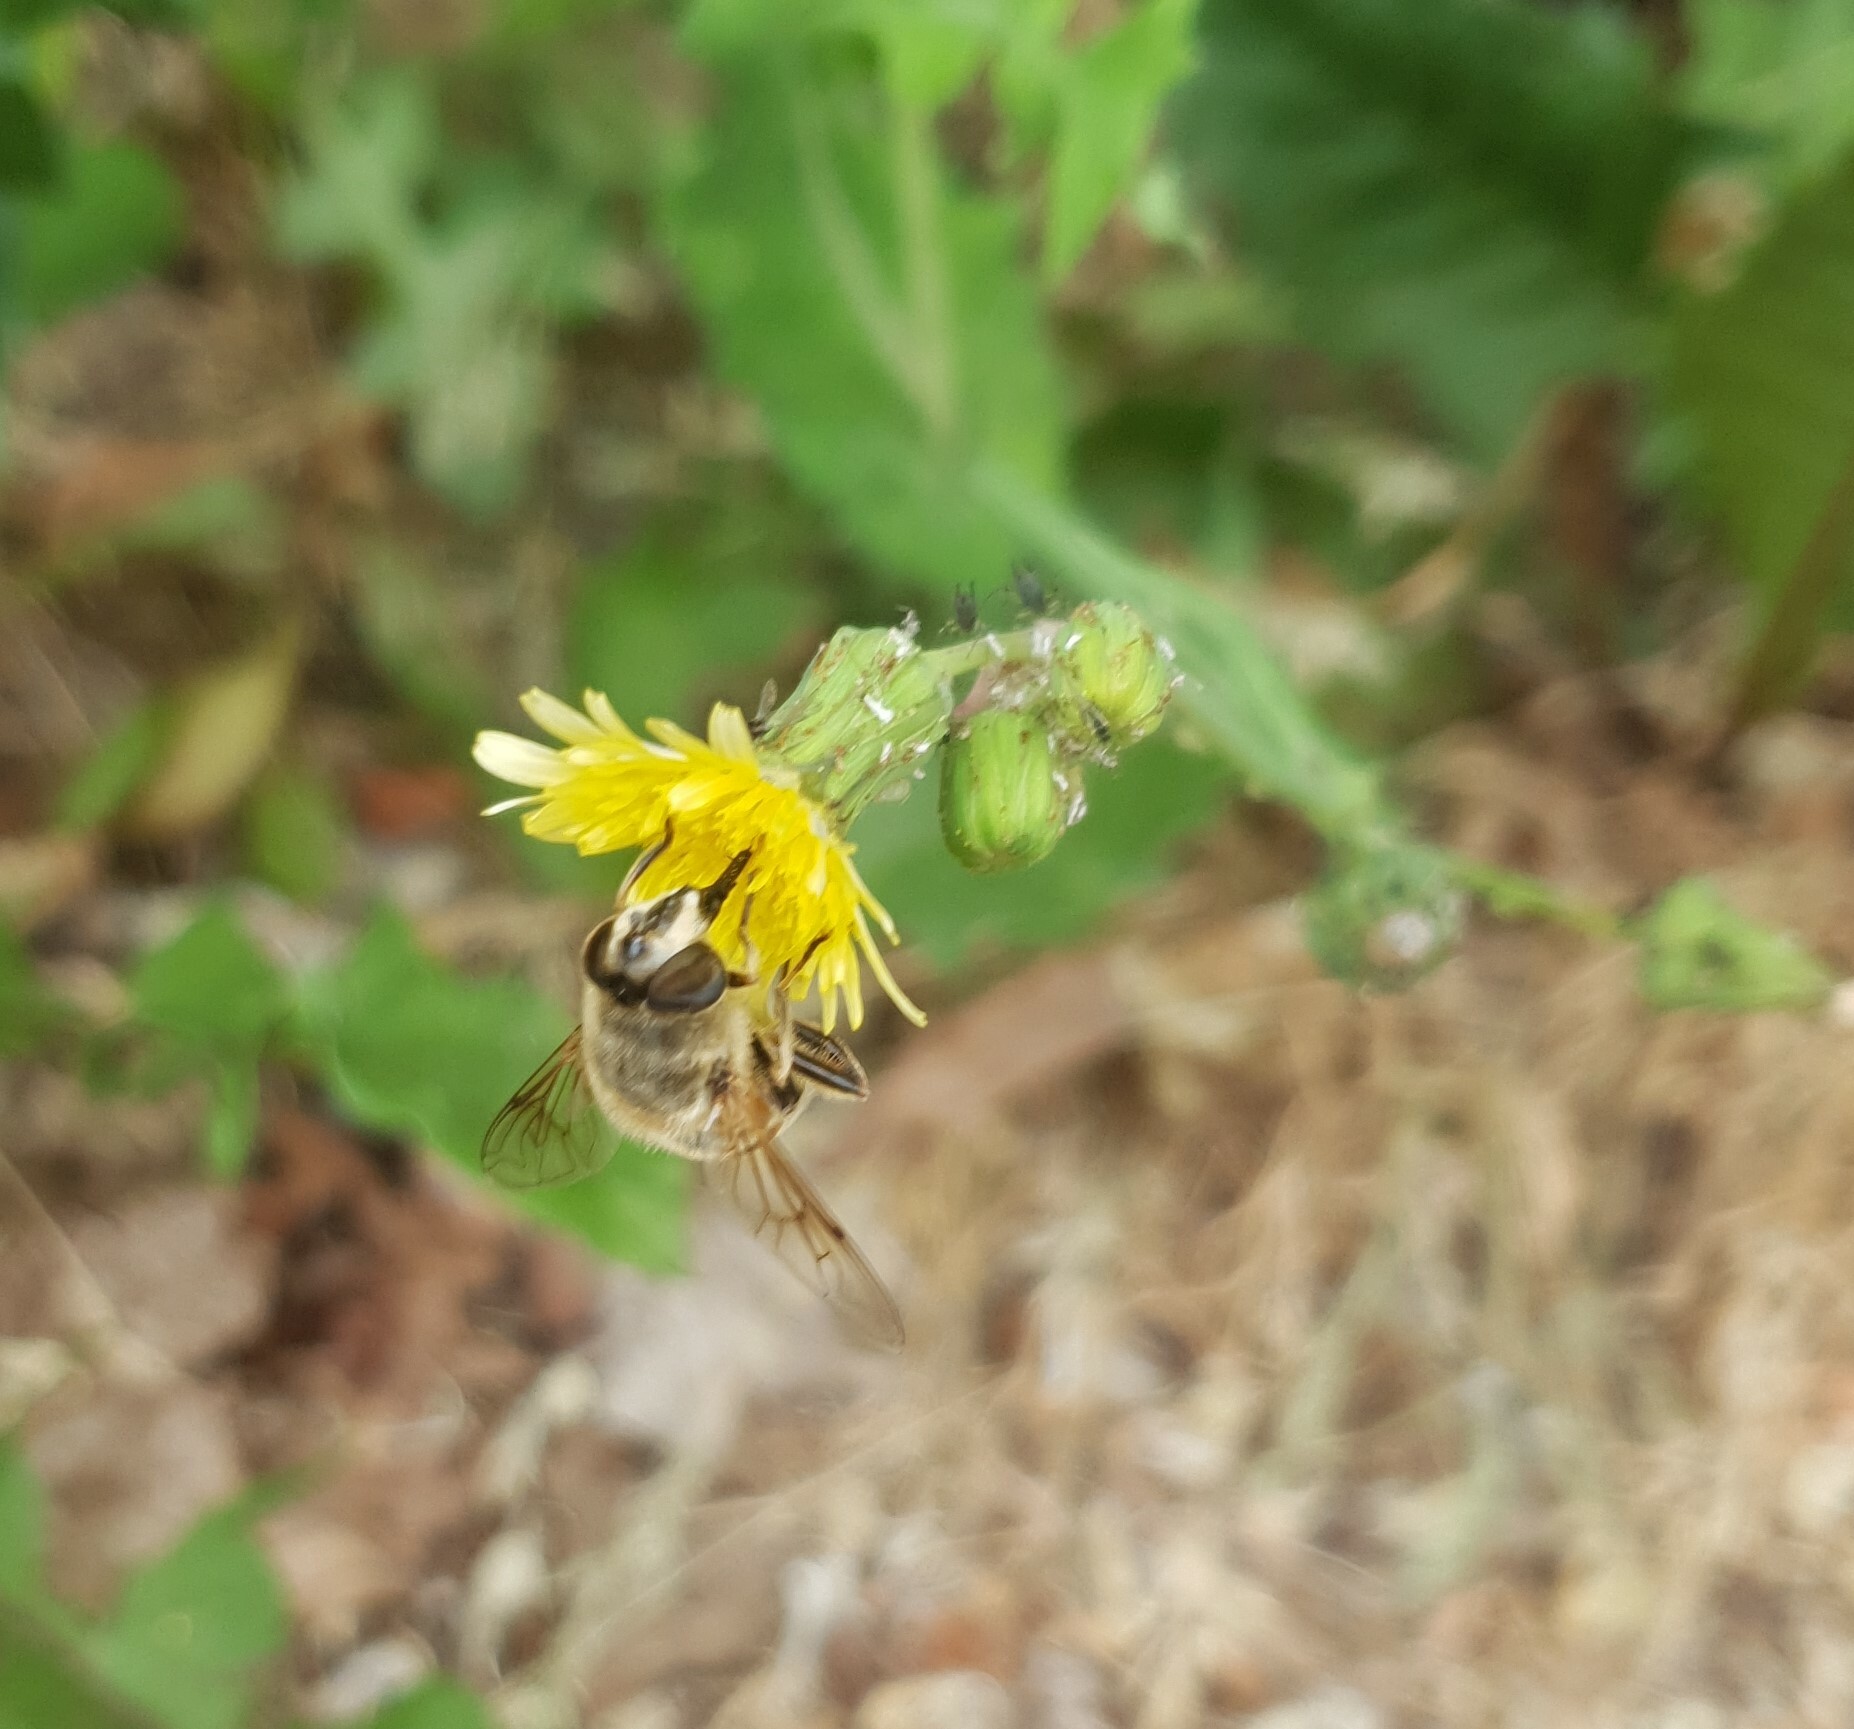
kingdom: Animalia
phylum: Arthropoda
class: Insecta
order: Diptera
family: Syrphidae
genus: Eristalis
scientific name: Eristalis tenax
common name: Drone fly
